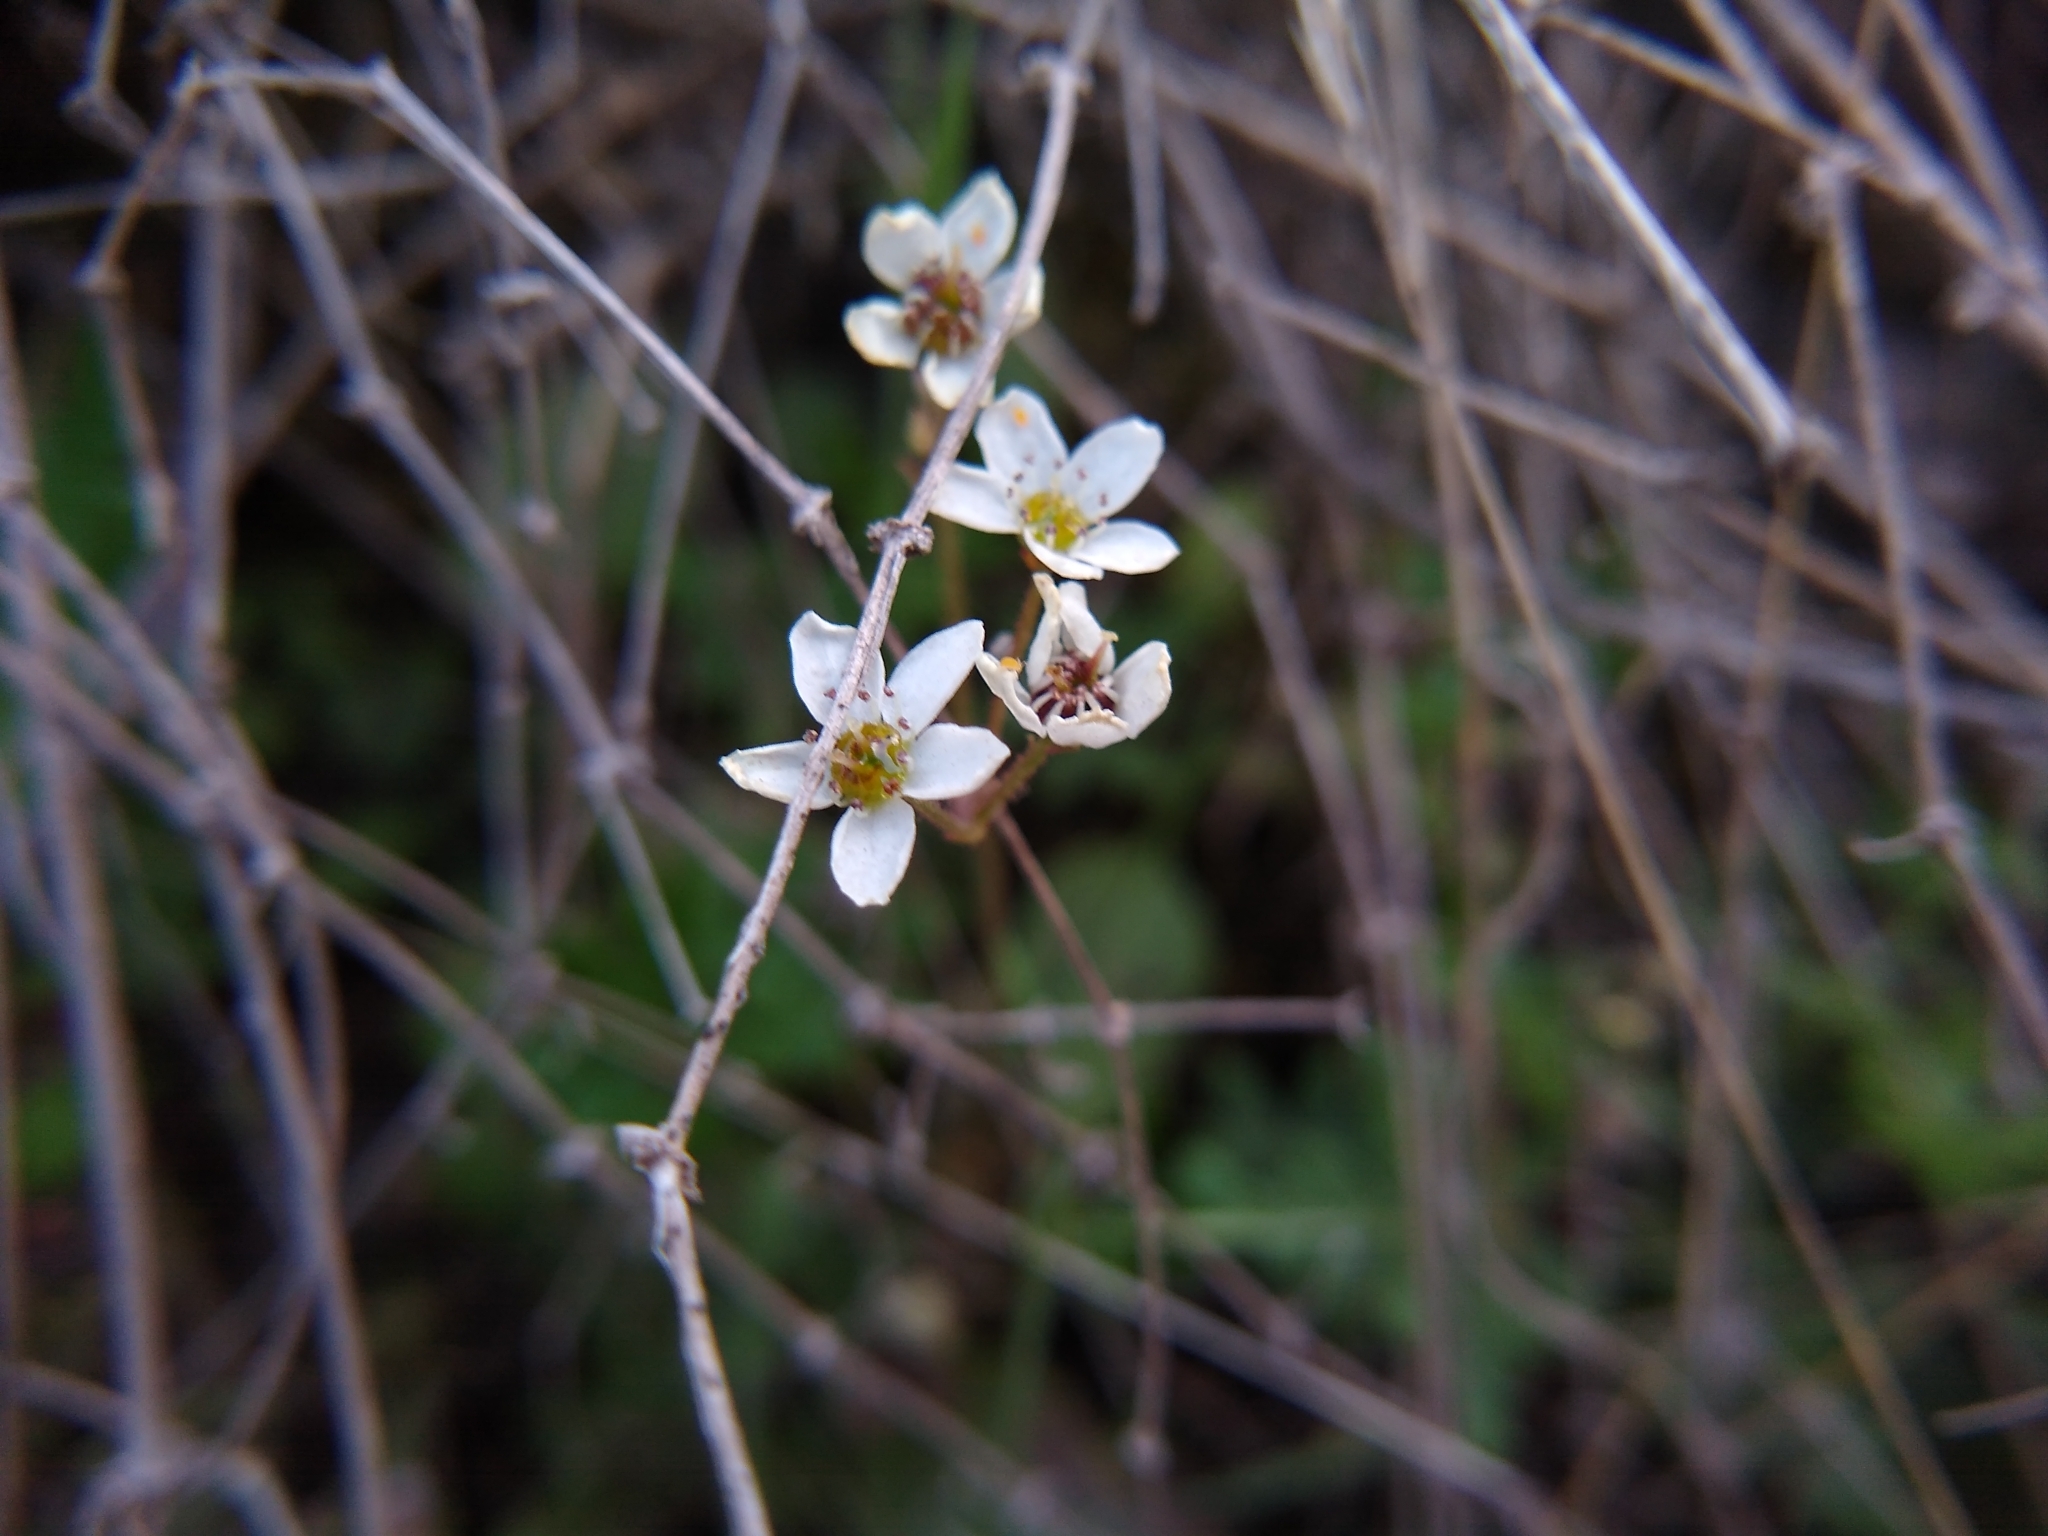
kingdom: Plantae
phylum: Tracheophyta
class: Magnoliopsida
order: Saxifragales
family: Saxifragaceae
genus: Micranthes
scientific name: Micranthes californica
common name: California saxifrage
